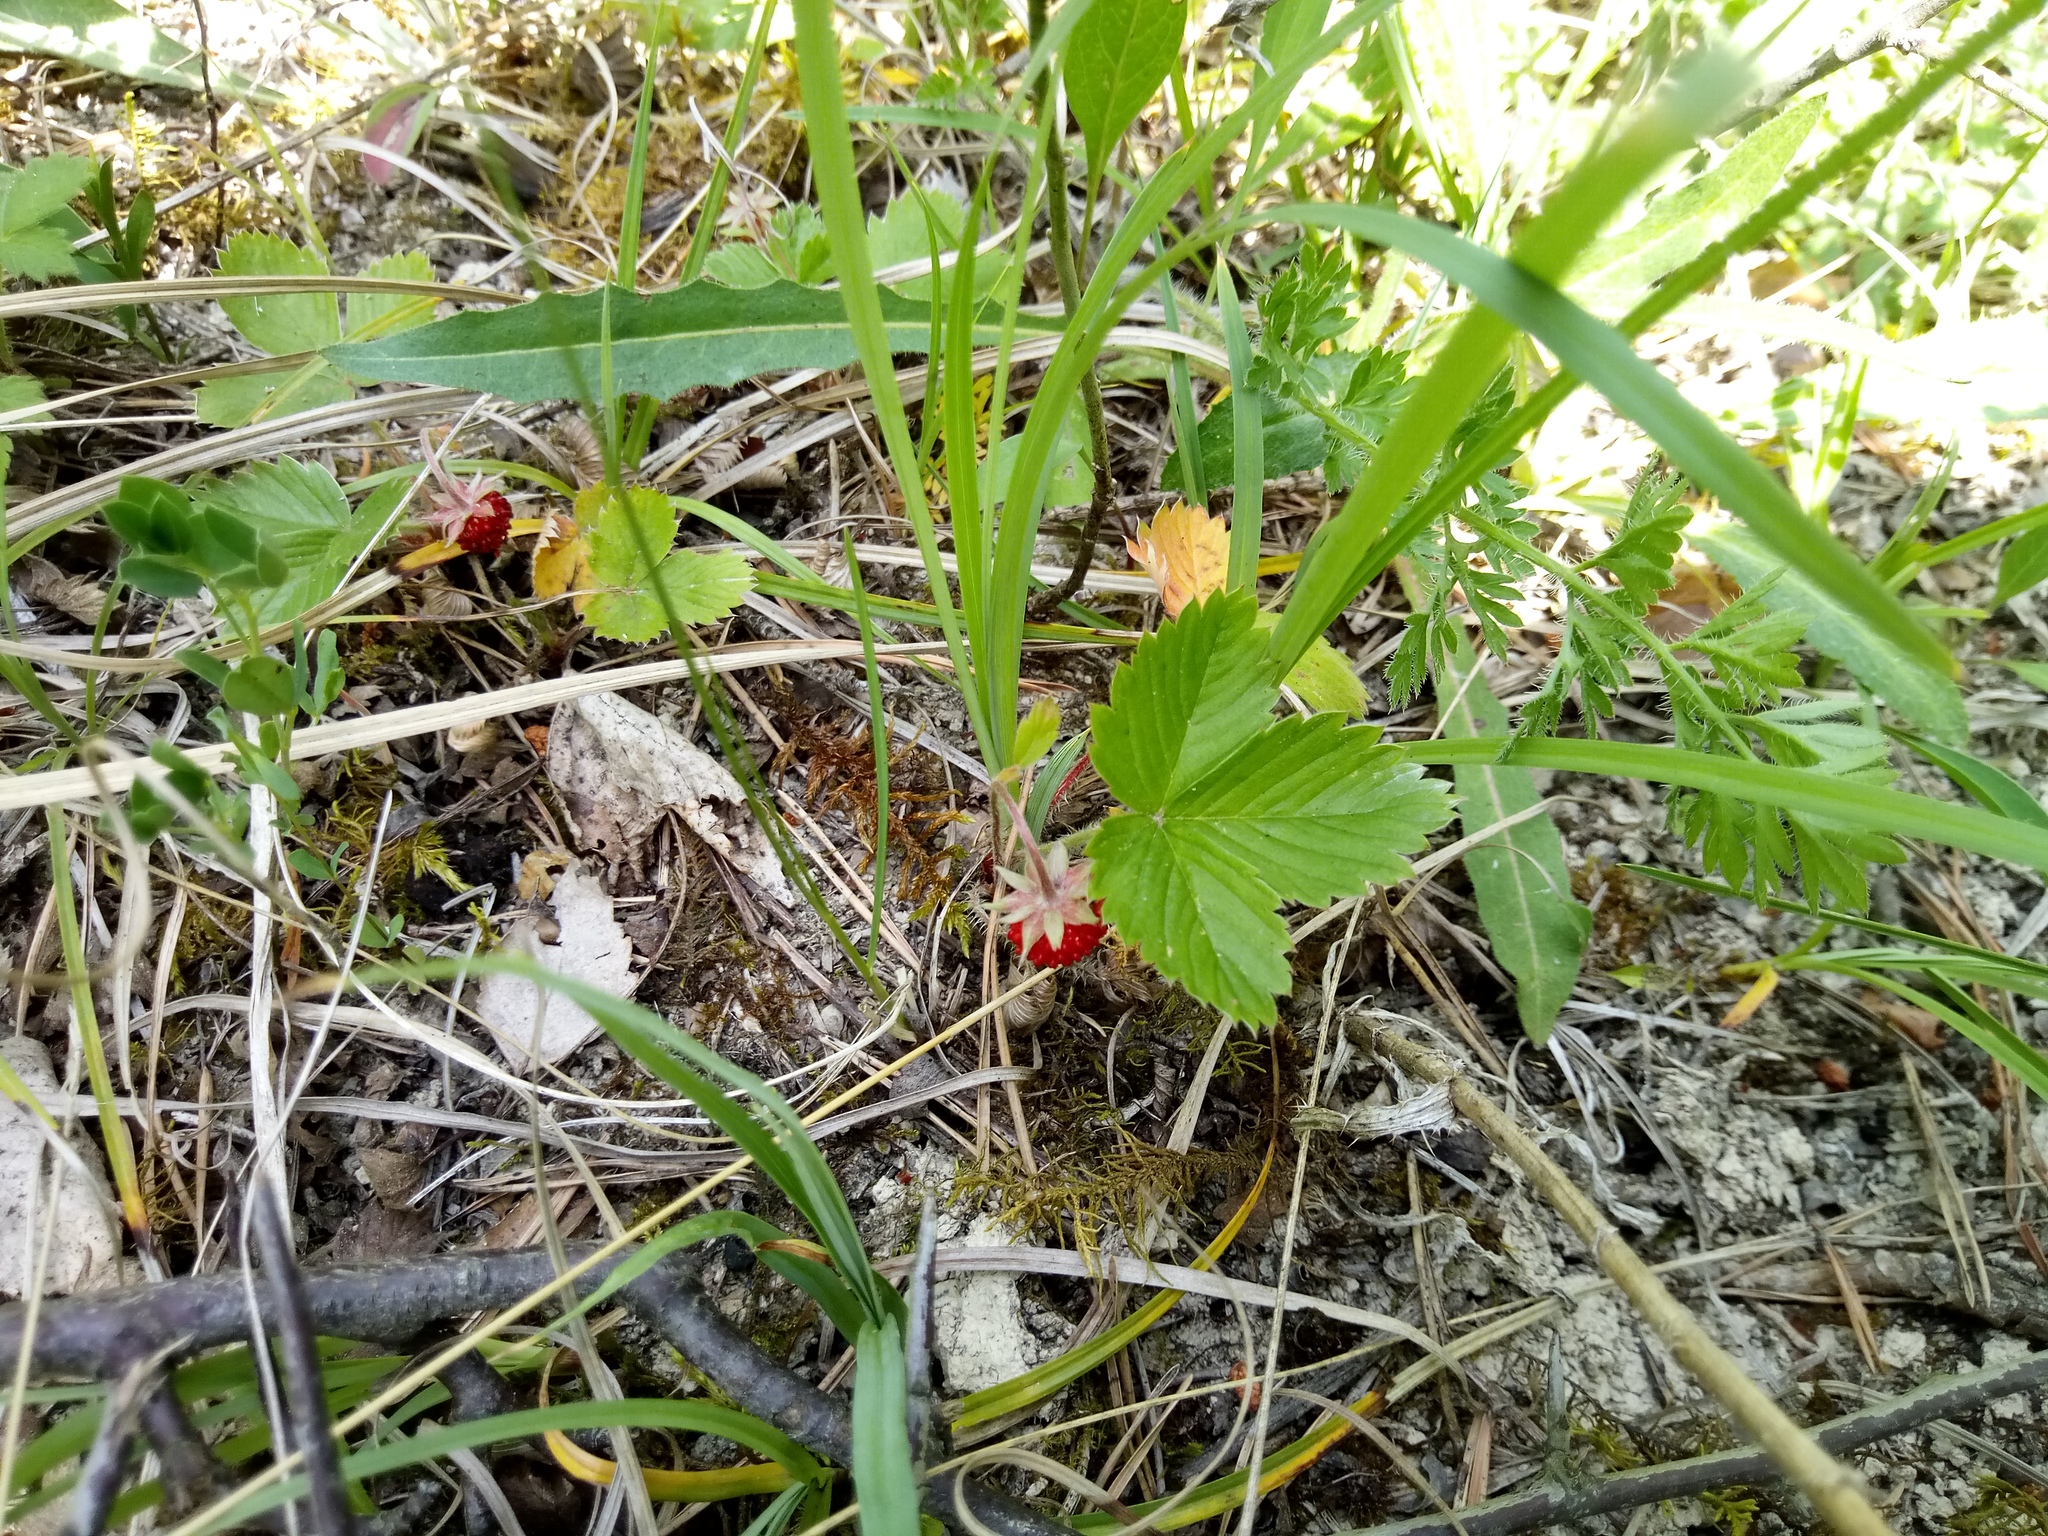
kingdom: Plantae
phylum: Tracheophyta
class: Magnoliopsida
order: Rosales
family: Rosaceae
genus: Fragaria
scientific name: Fragaria vesca
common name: Wild strawberry
